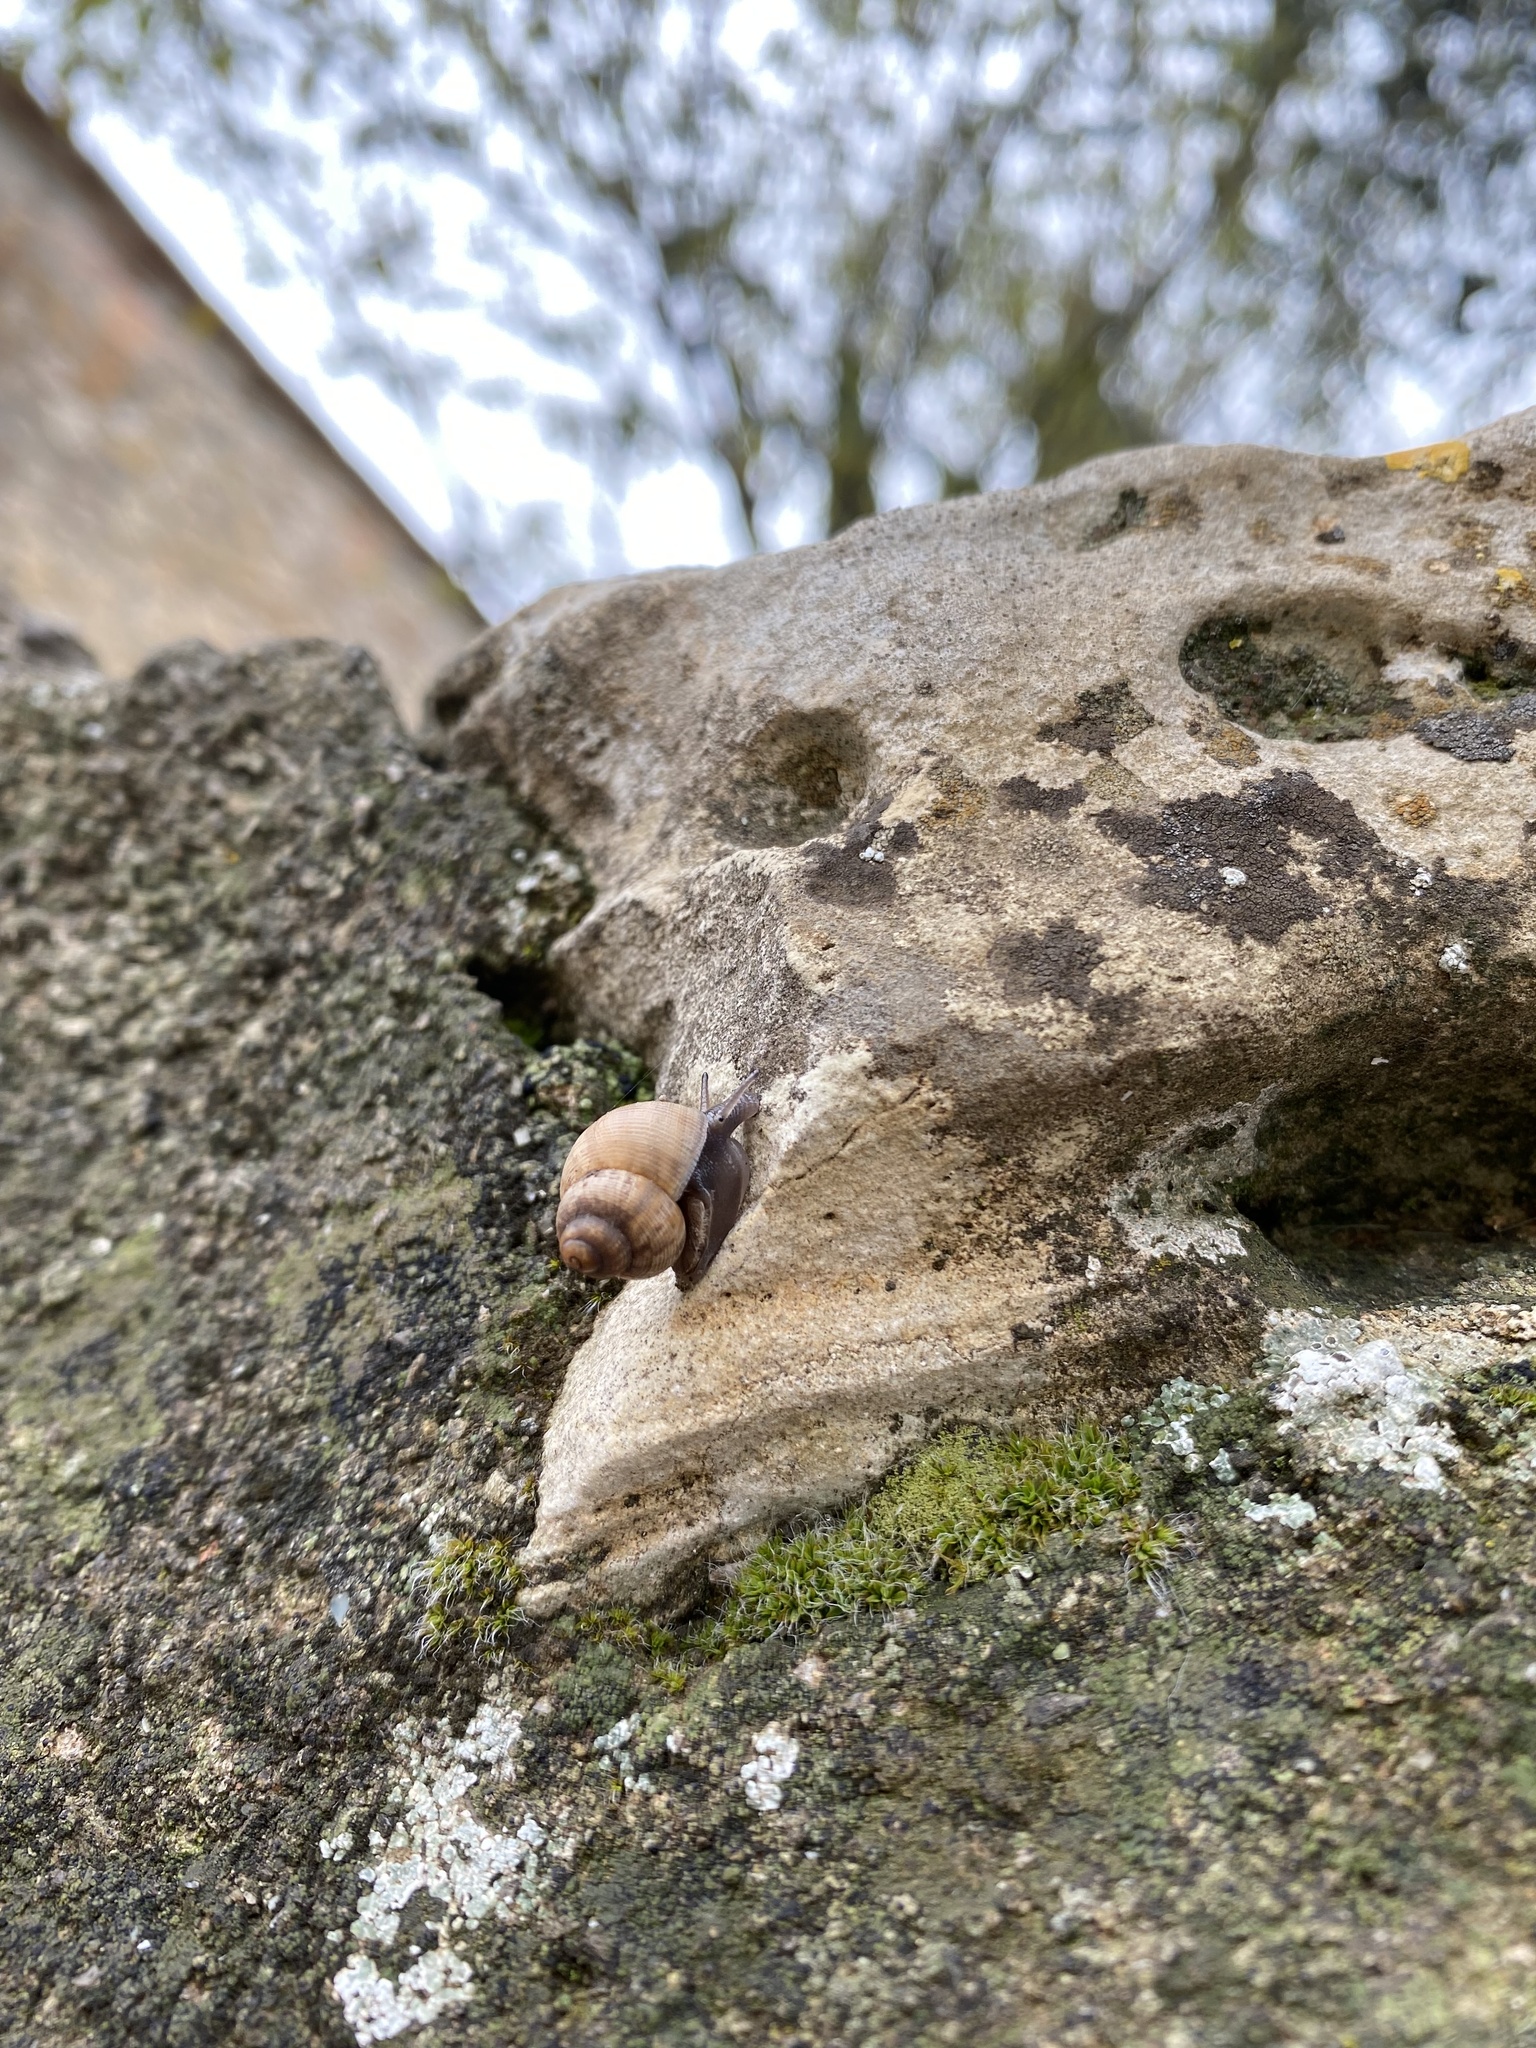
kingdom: Animalia
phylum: Mollusca
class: Gastropoda
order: Littorinimorpha
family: Pomatiidae
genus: Pomatias
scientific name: Pomatias elegans
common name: Red-mouthed snail
